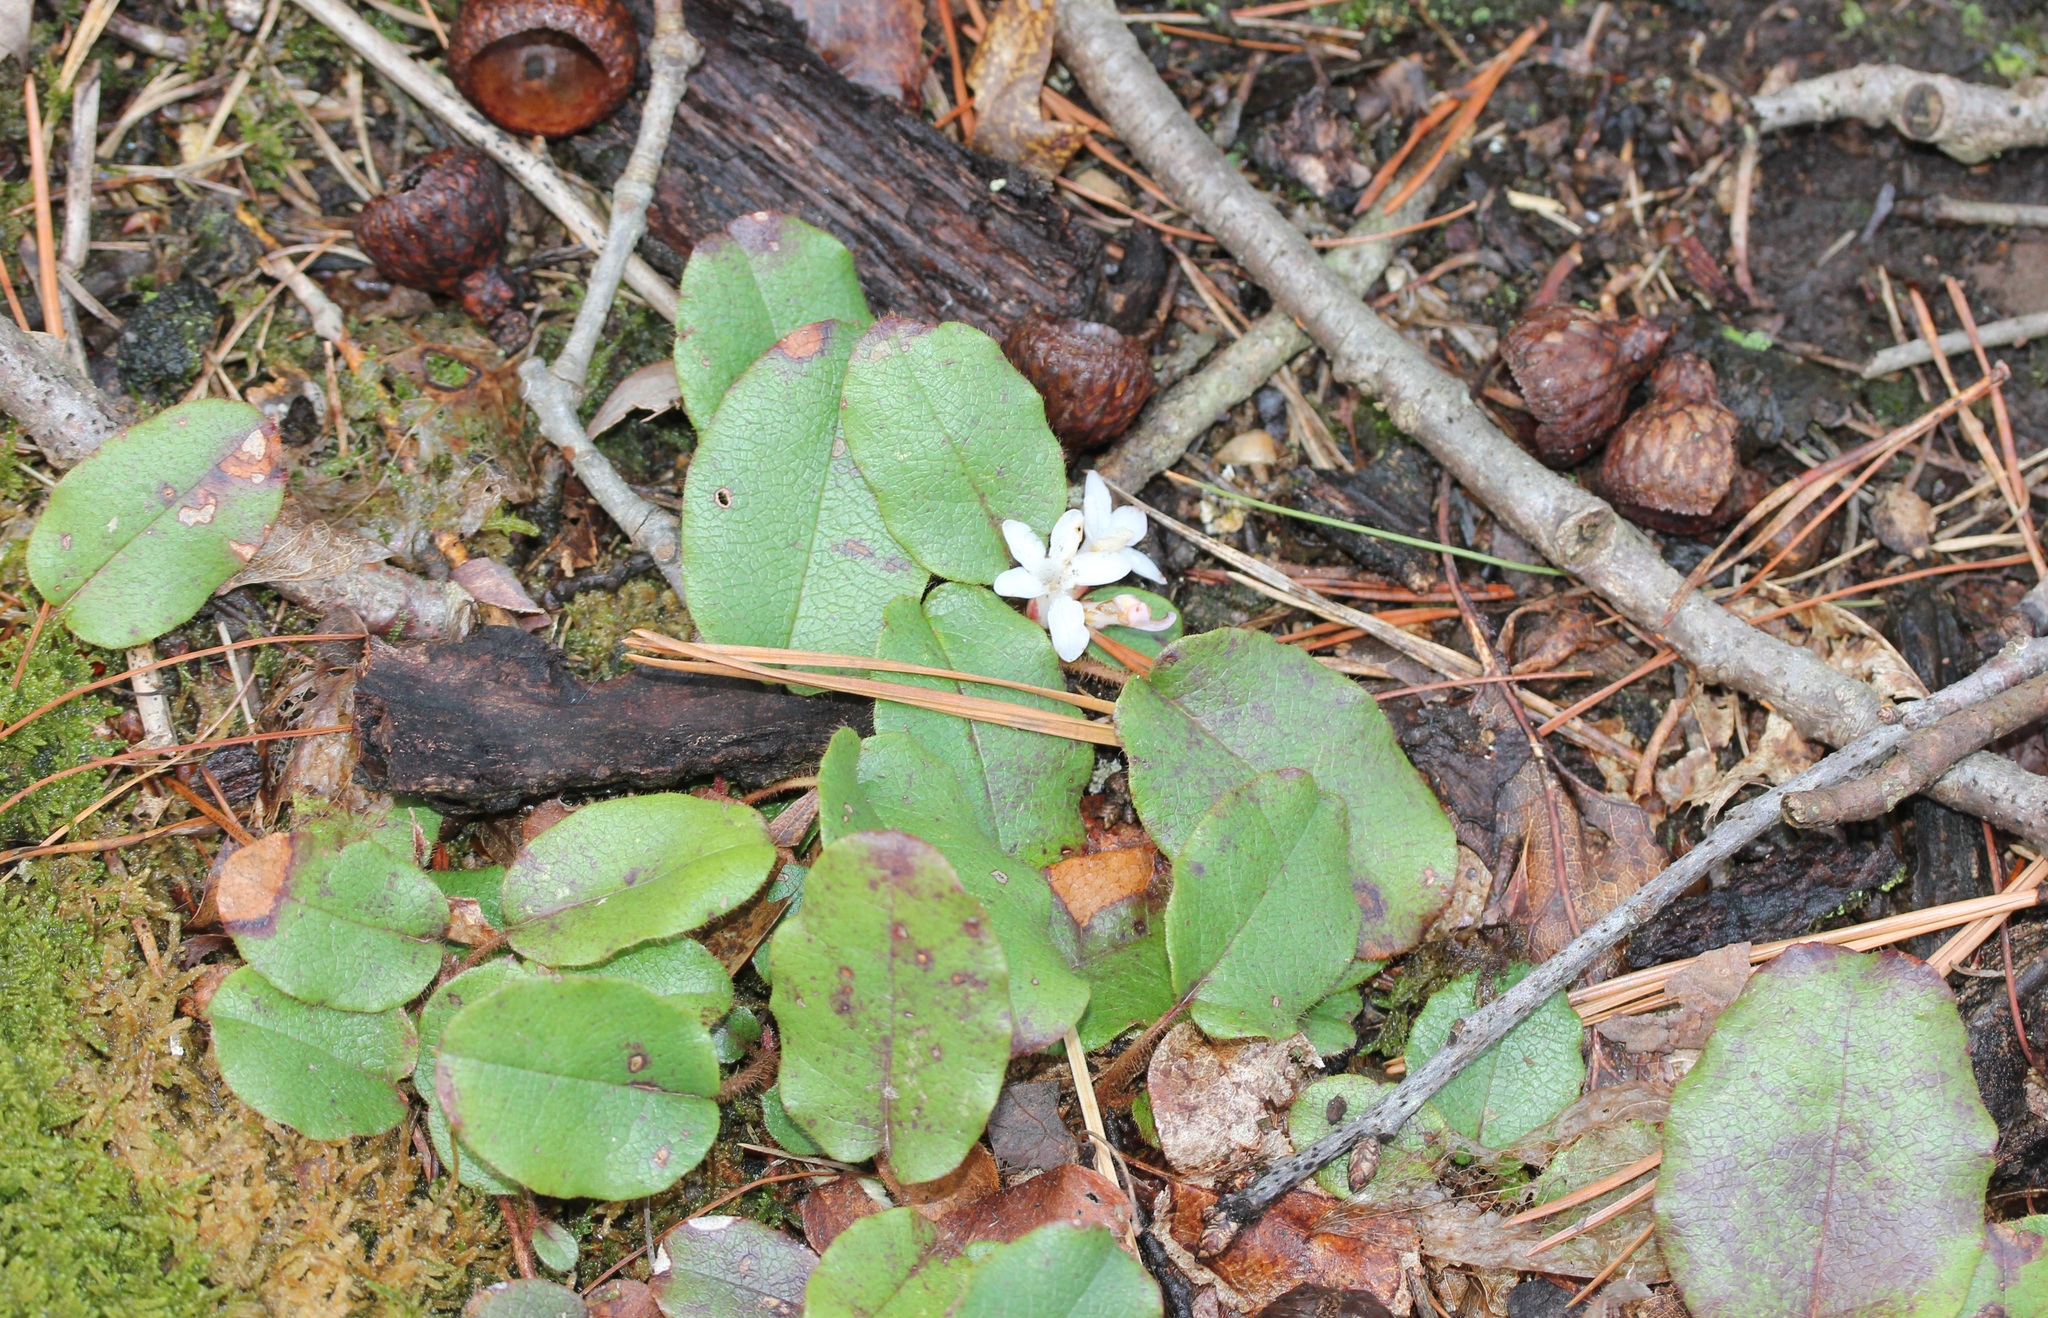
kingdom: Plantae
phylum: Tracheophyta
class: Magnoliopsida
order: Ericales
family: Ericaceae
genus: Epigaea
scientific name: Epigaea repens
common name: Gravelroot
